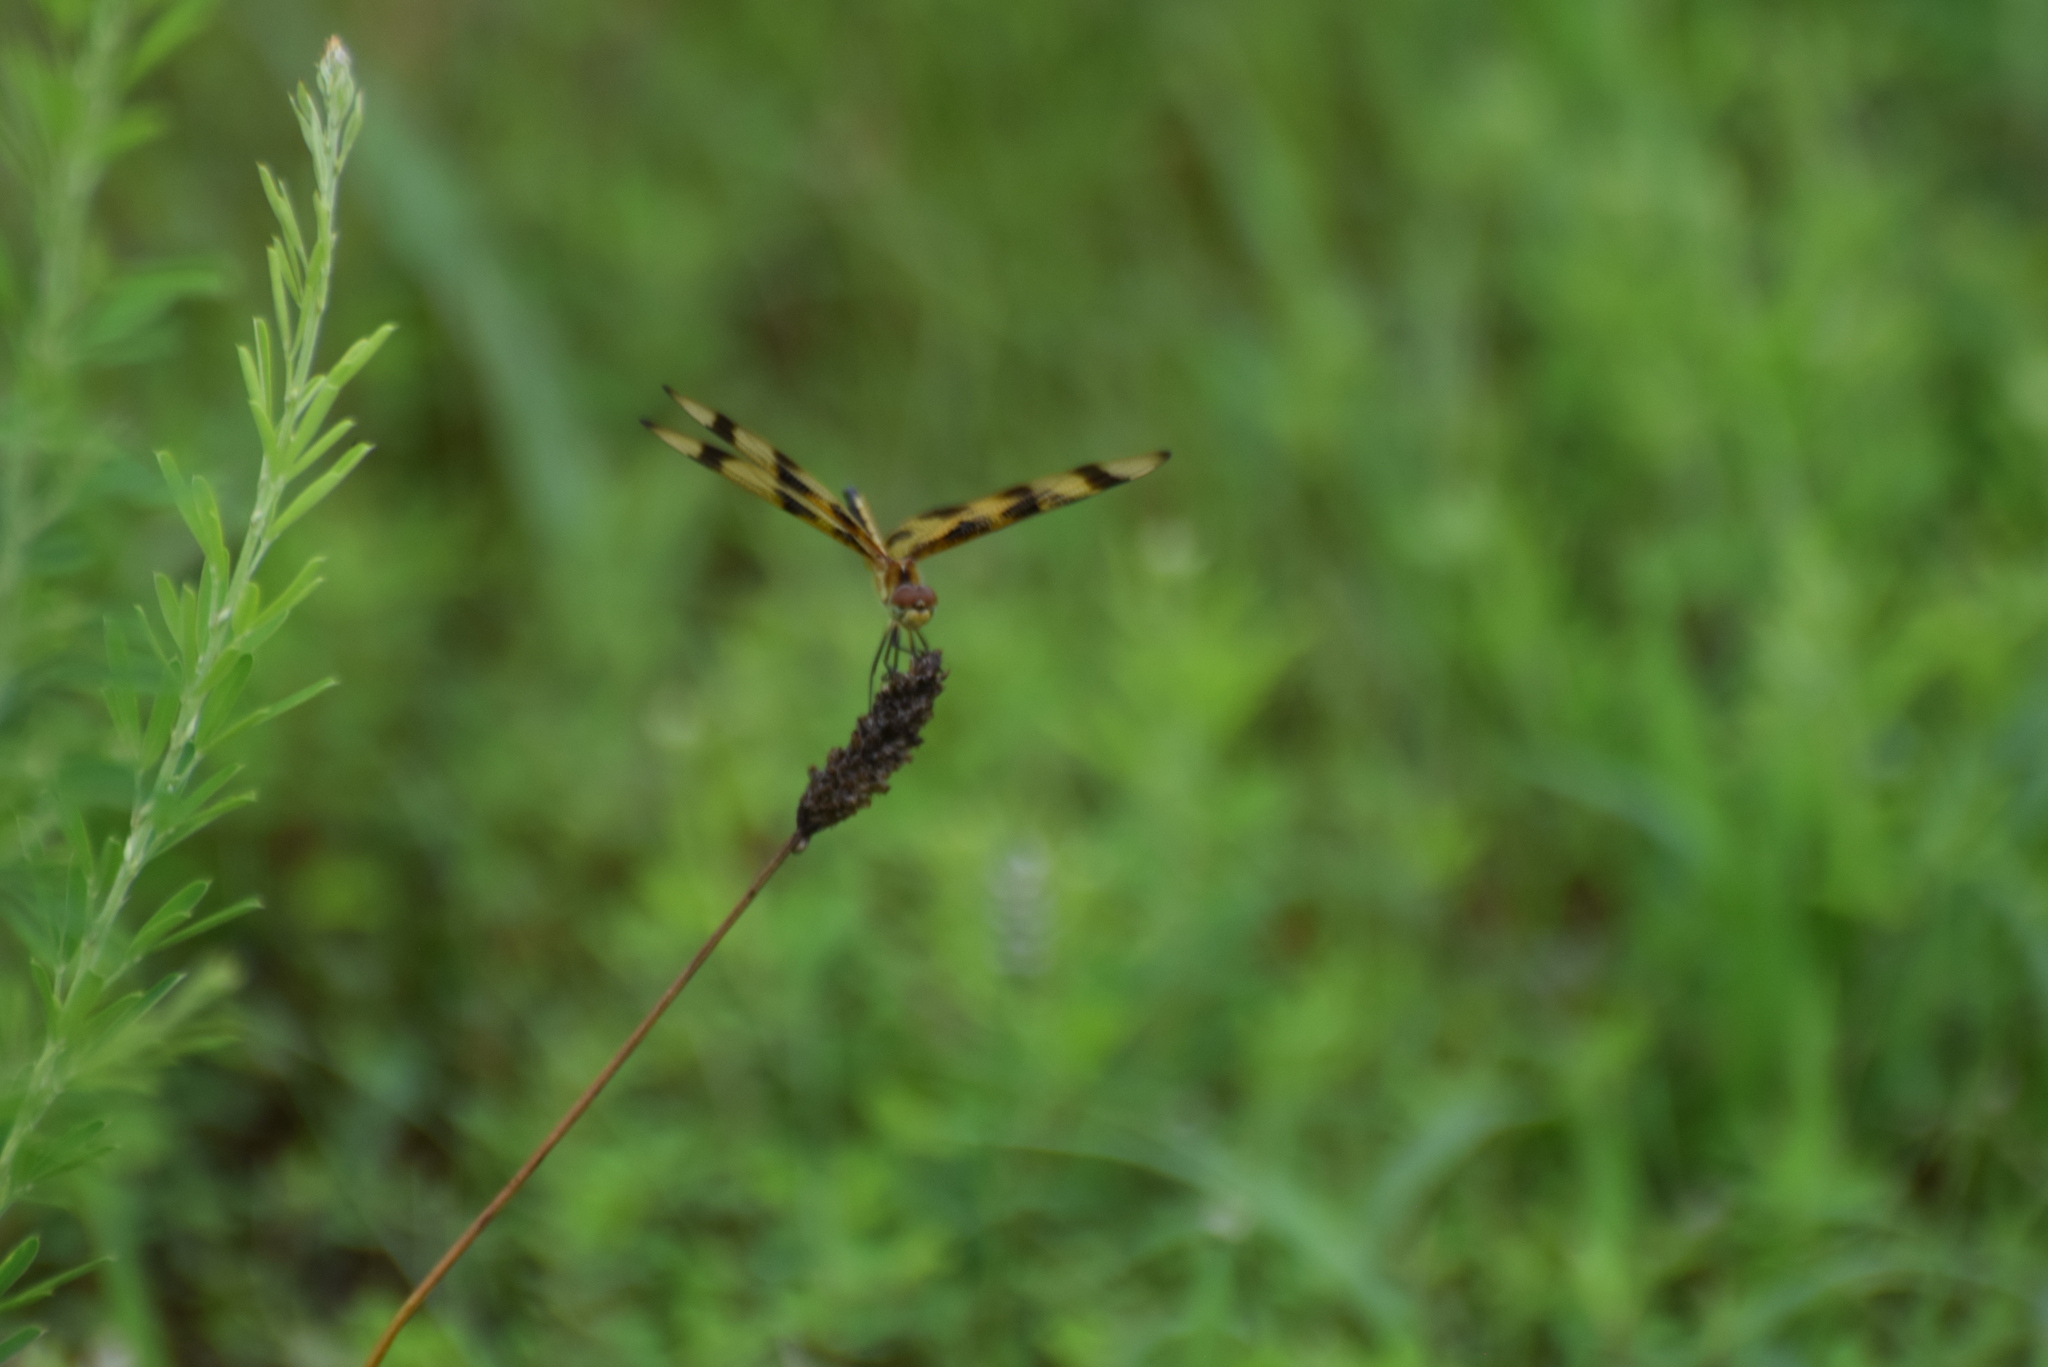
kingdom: Animalia
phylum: Arthropoda
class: Insecta
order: Odonata
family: Libellulidae
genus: Celithemis
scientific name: Celithemis eponina
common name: Halloween pennant
